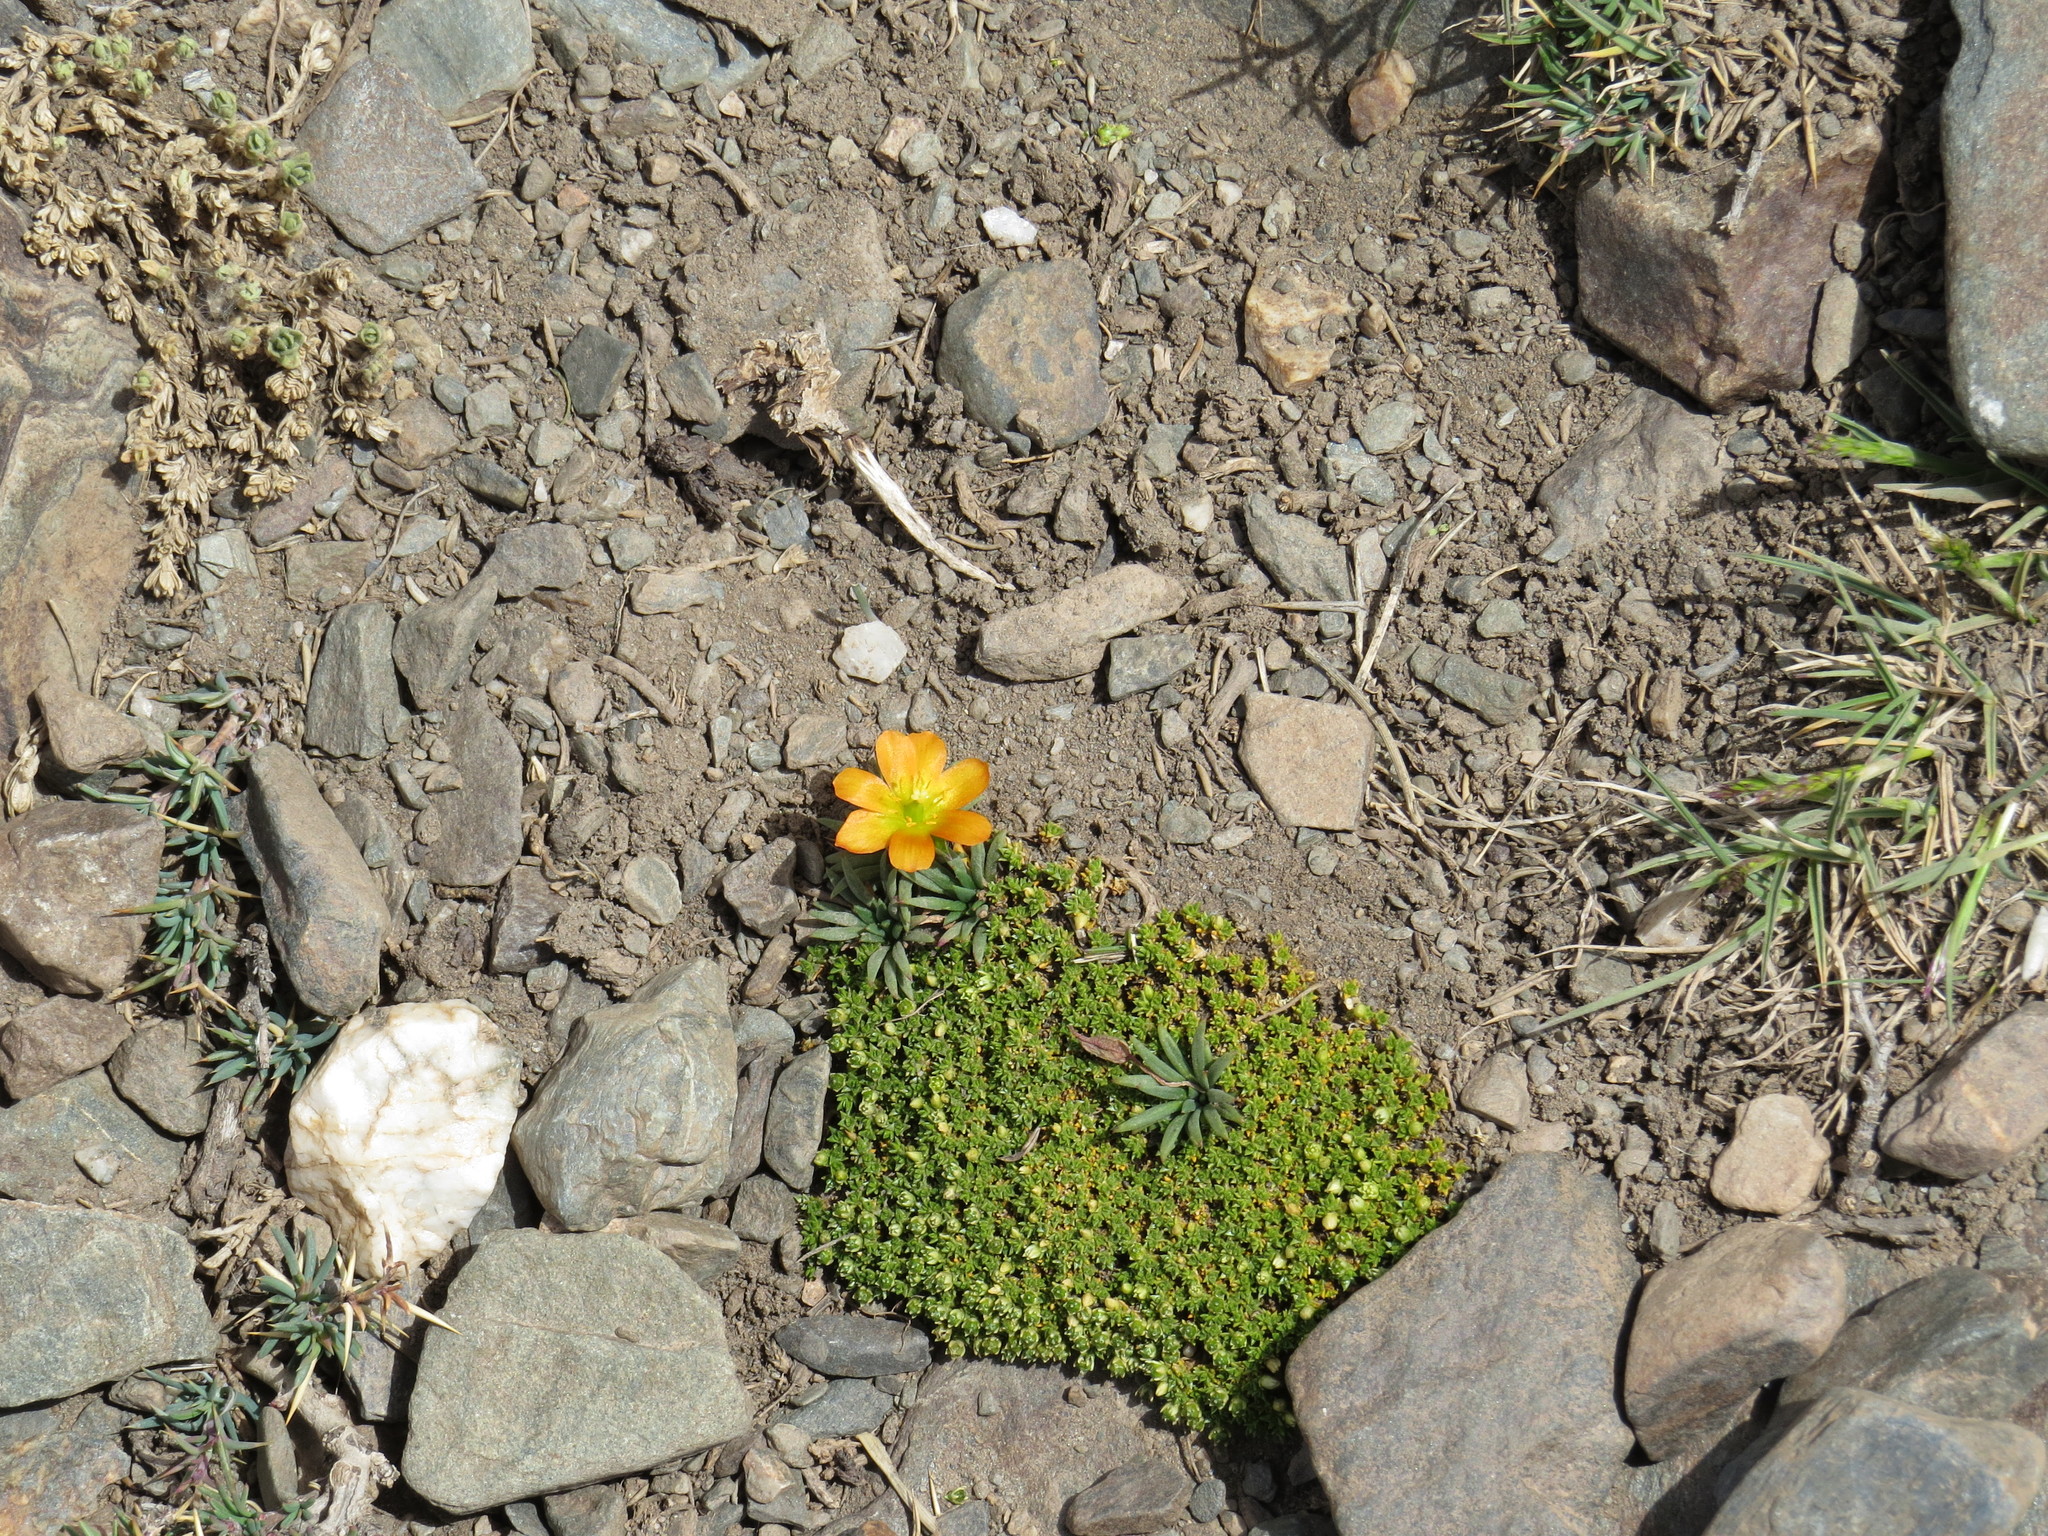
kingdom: Plantae
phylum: Tracheophyta
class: Magnoliopsida
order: Caryophyllales
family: Montiaceae
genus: Calandrinia
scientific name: Calandrinia caespitosa
